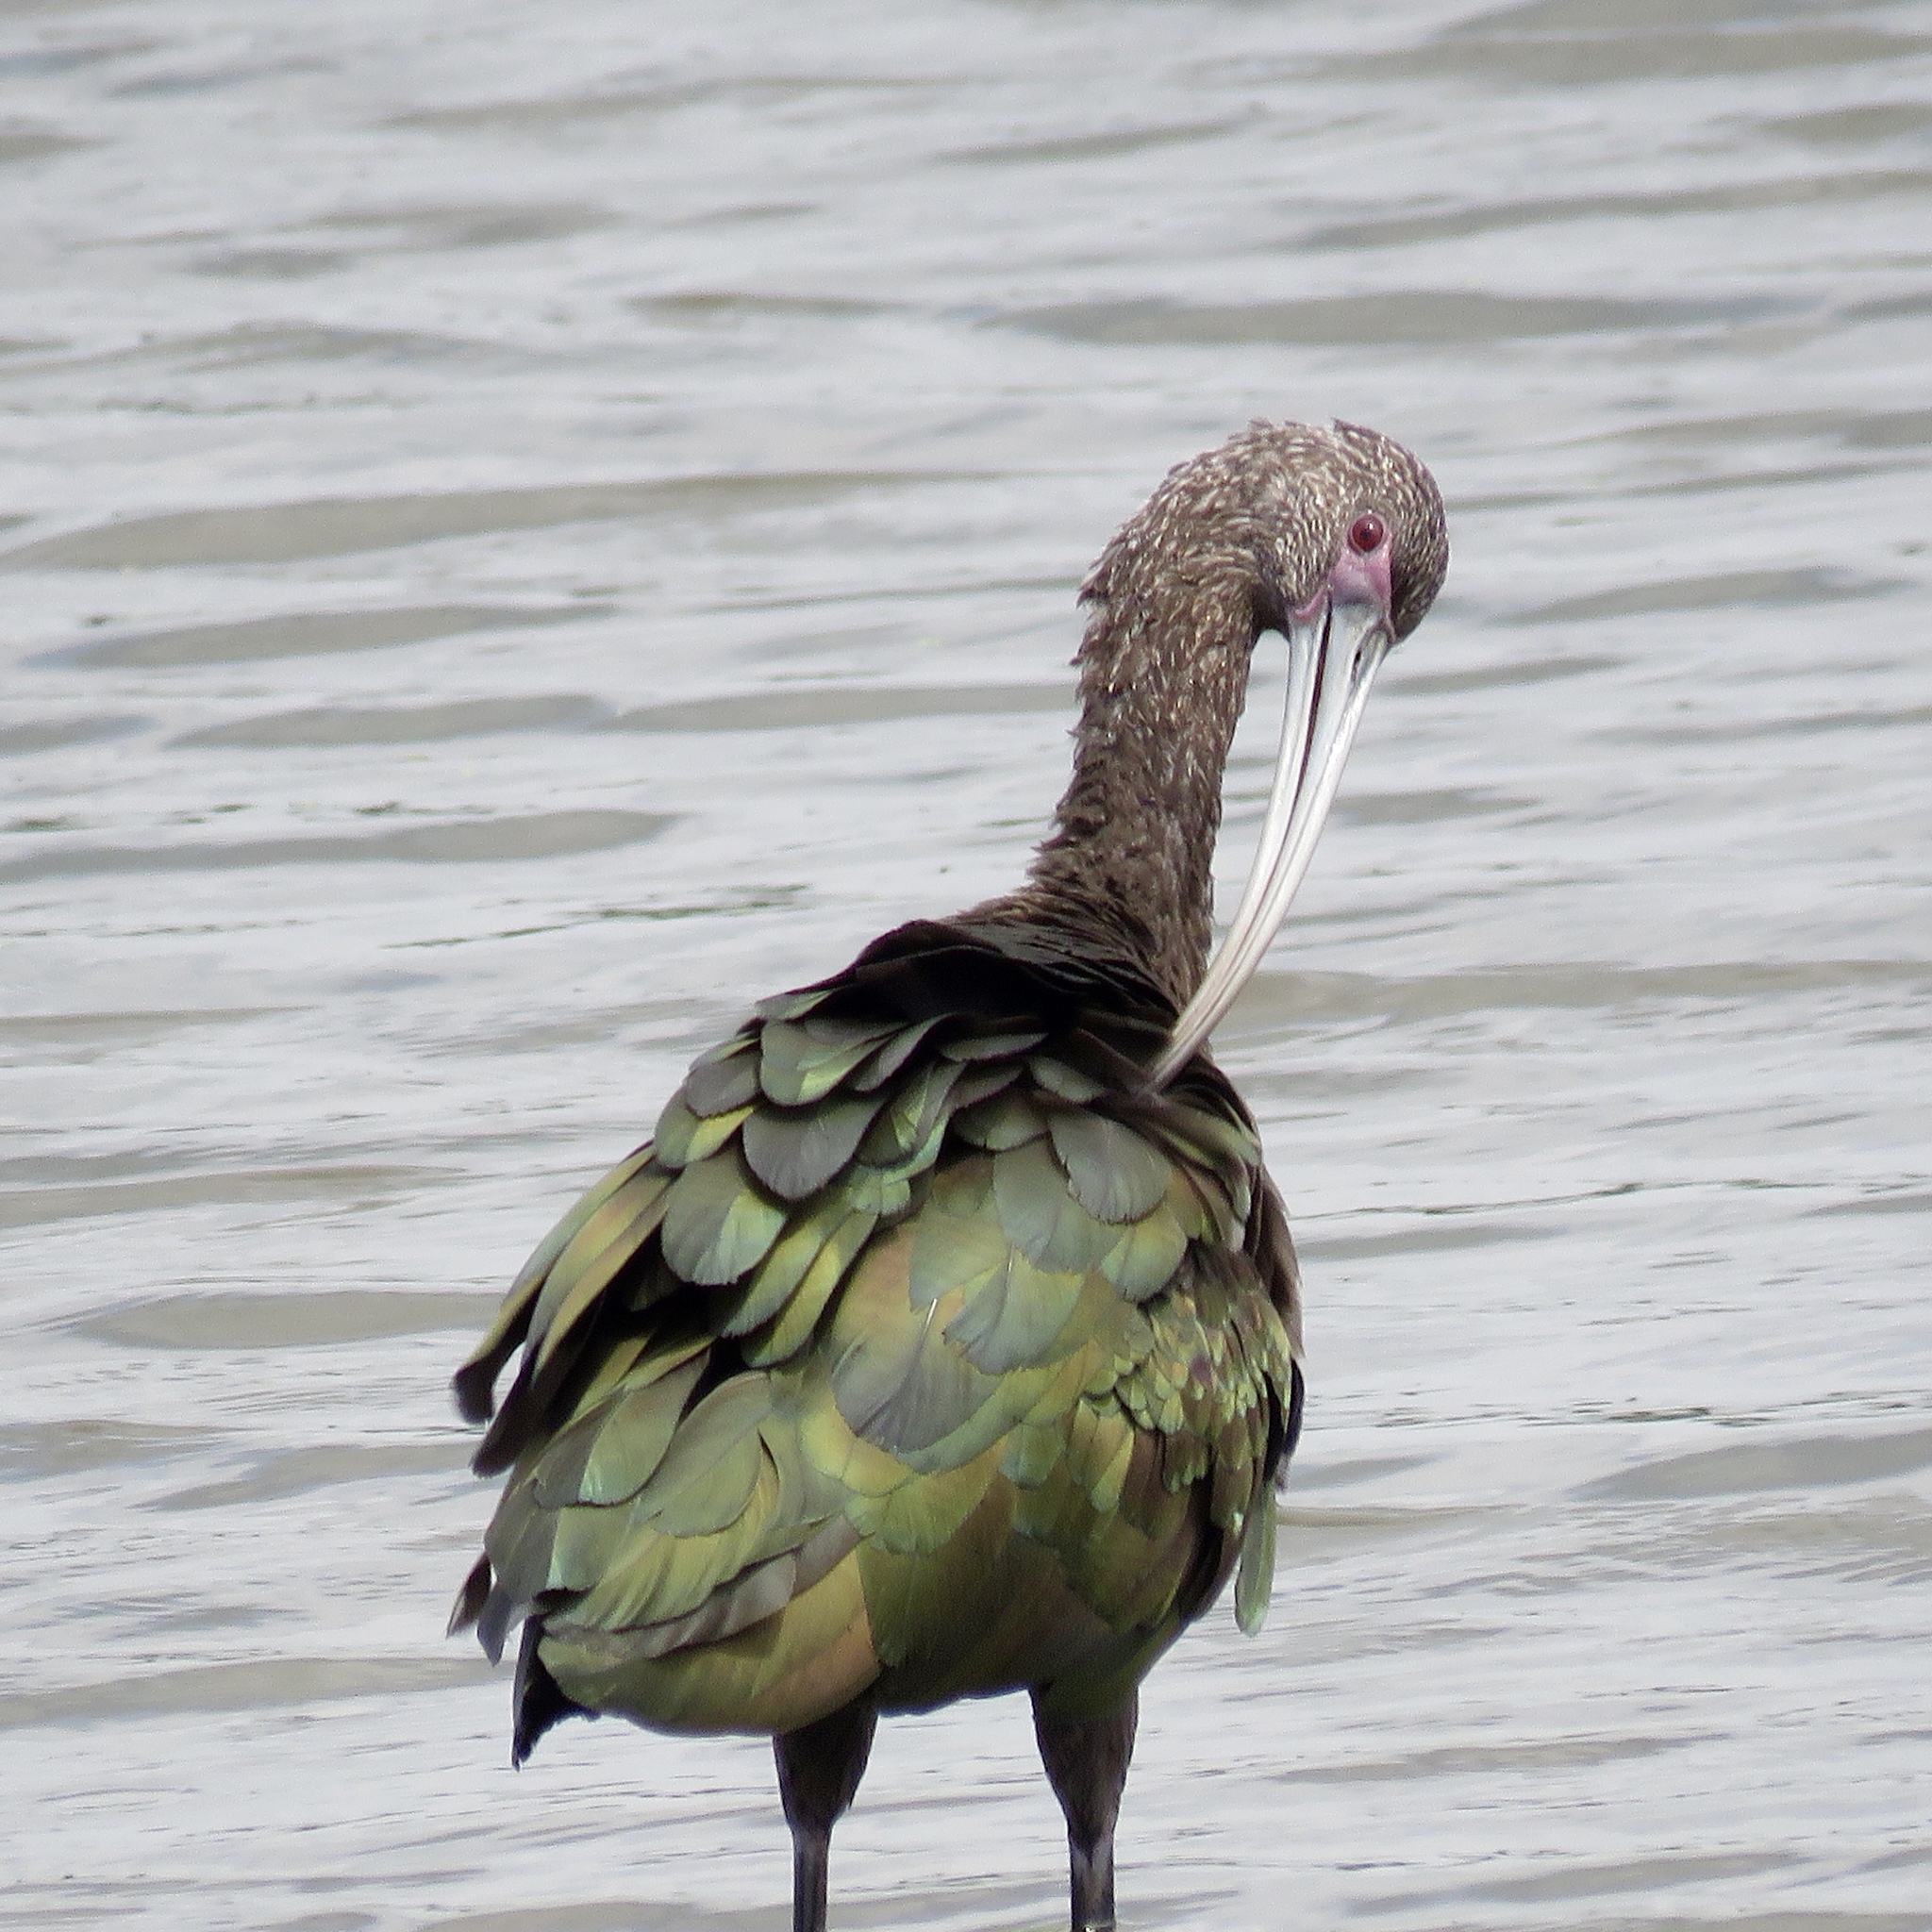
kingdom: Animalia
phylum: Chordata
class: Aves
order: Pelecaniformes
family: Threskiornithidae
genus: Plegadis
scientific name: Plegadis chihi
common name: White-faced ibis
